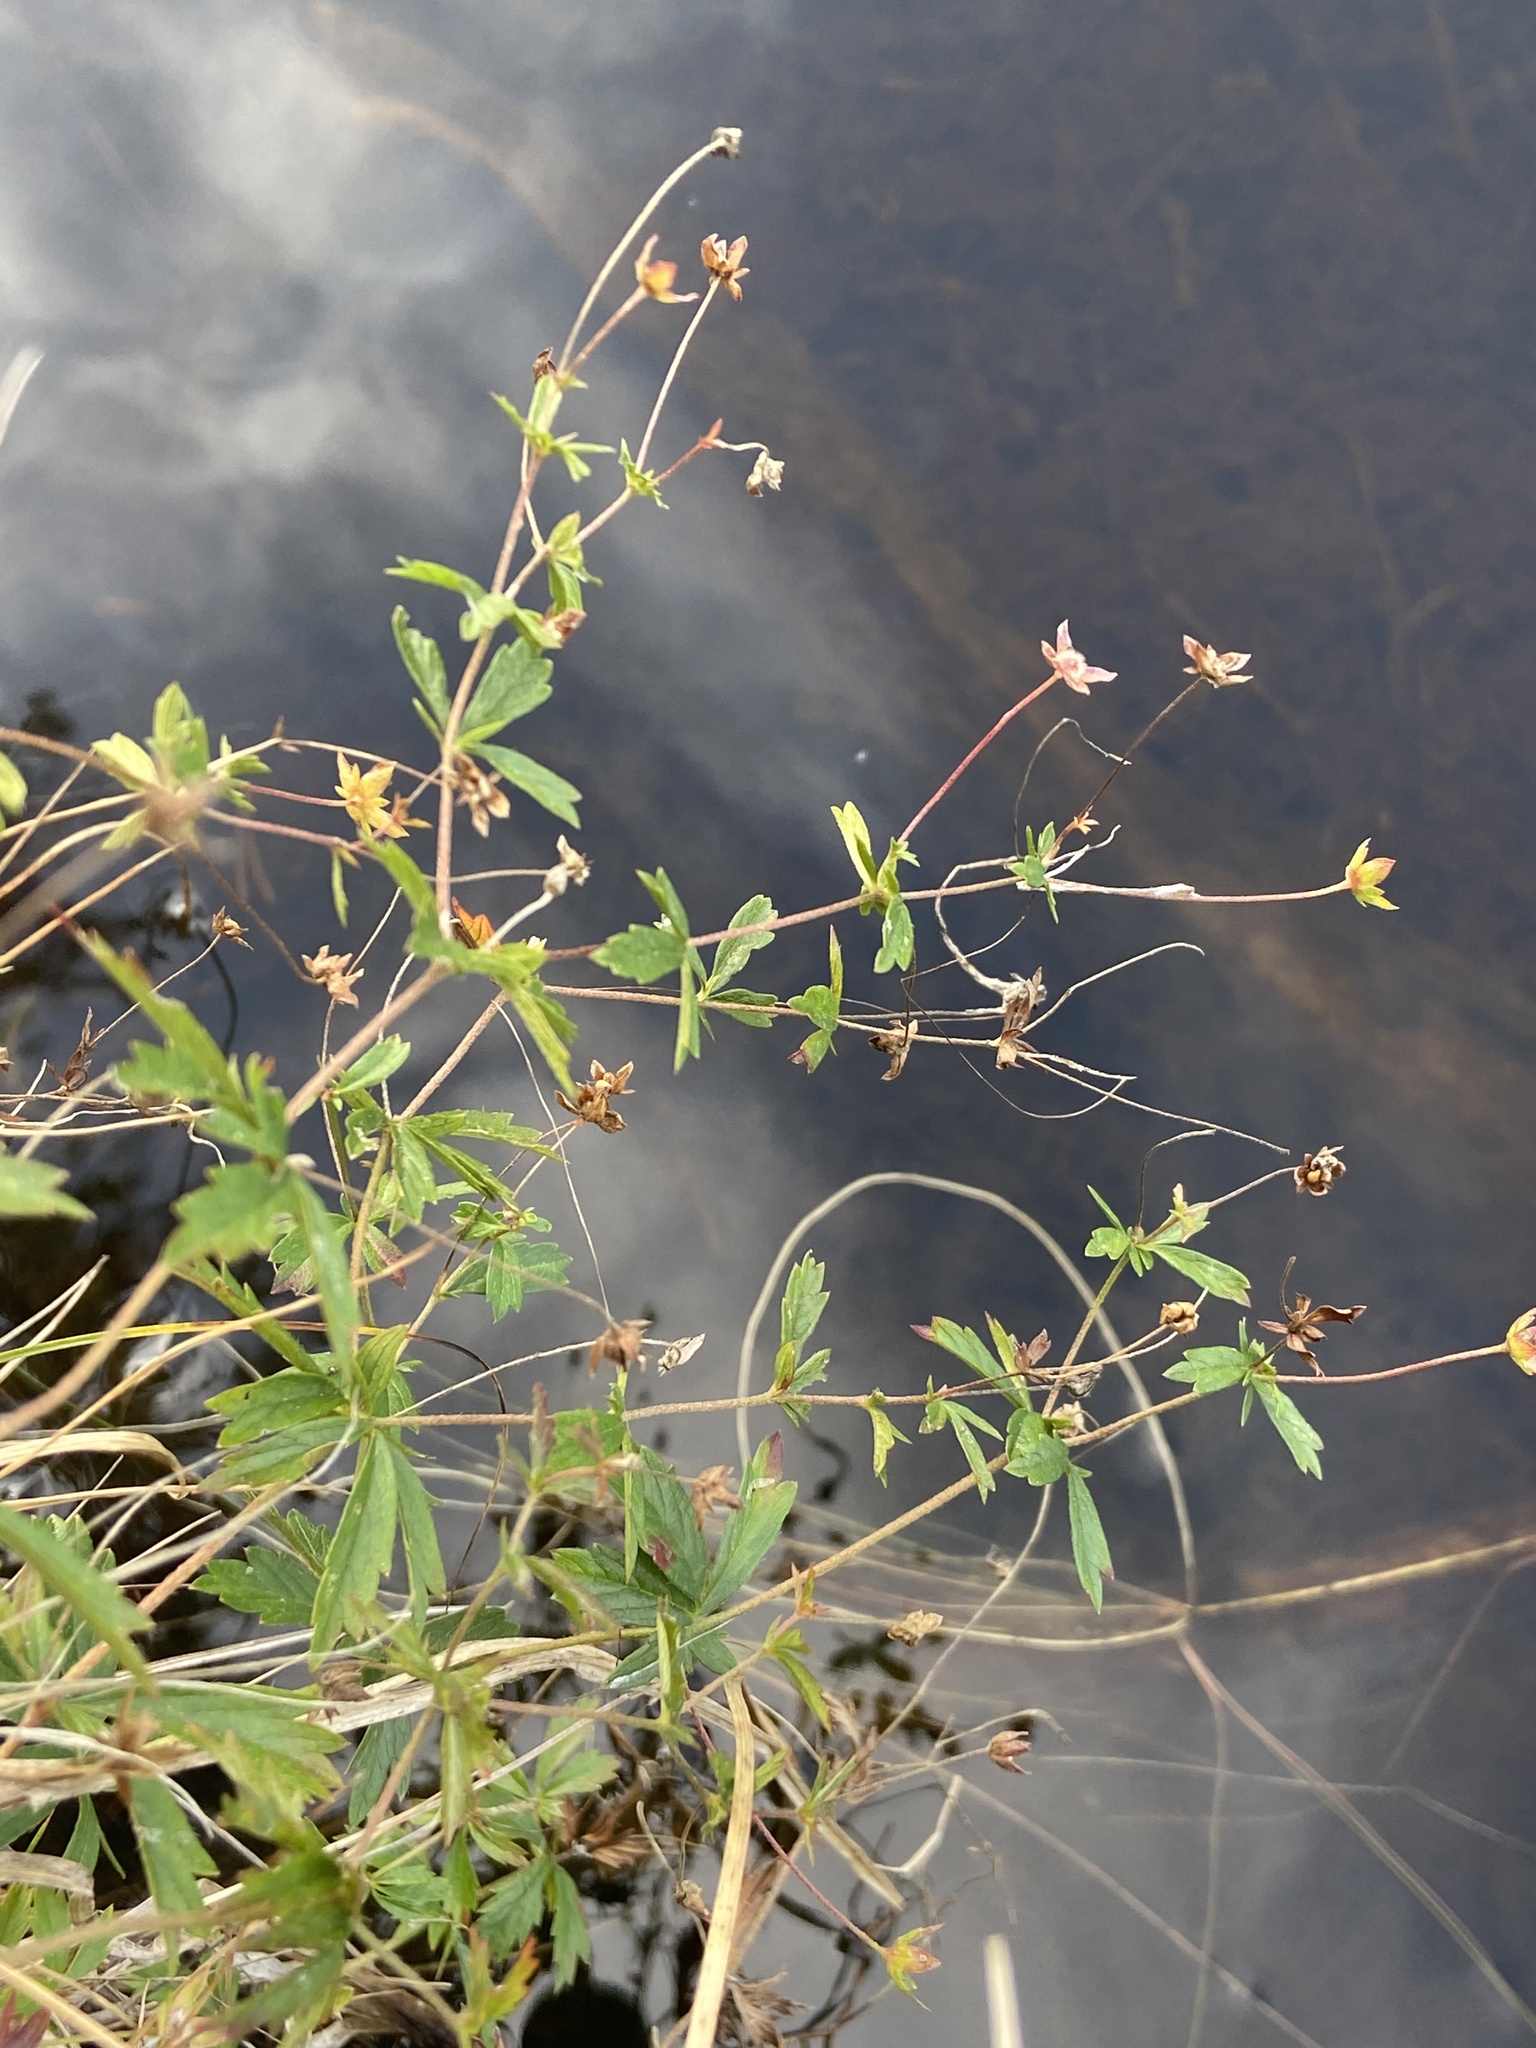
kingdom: Plantae
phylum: Tracheophyta
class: Magnoliopsida
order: Rosales
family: Rosaceae
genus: Potentilla
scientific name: Potentilla erecta
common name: Tormentil
